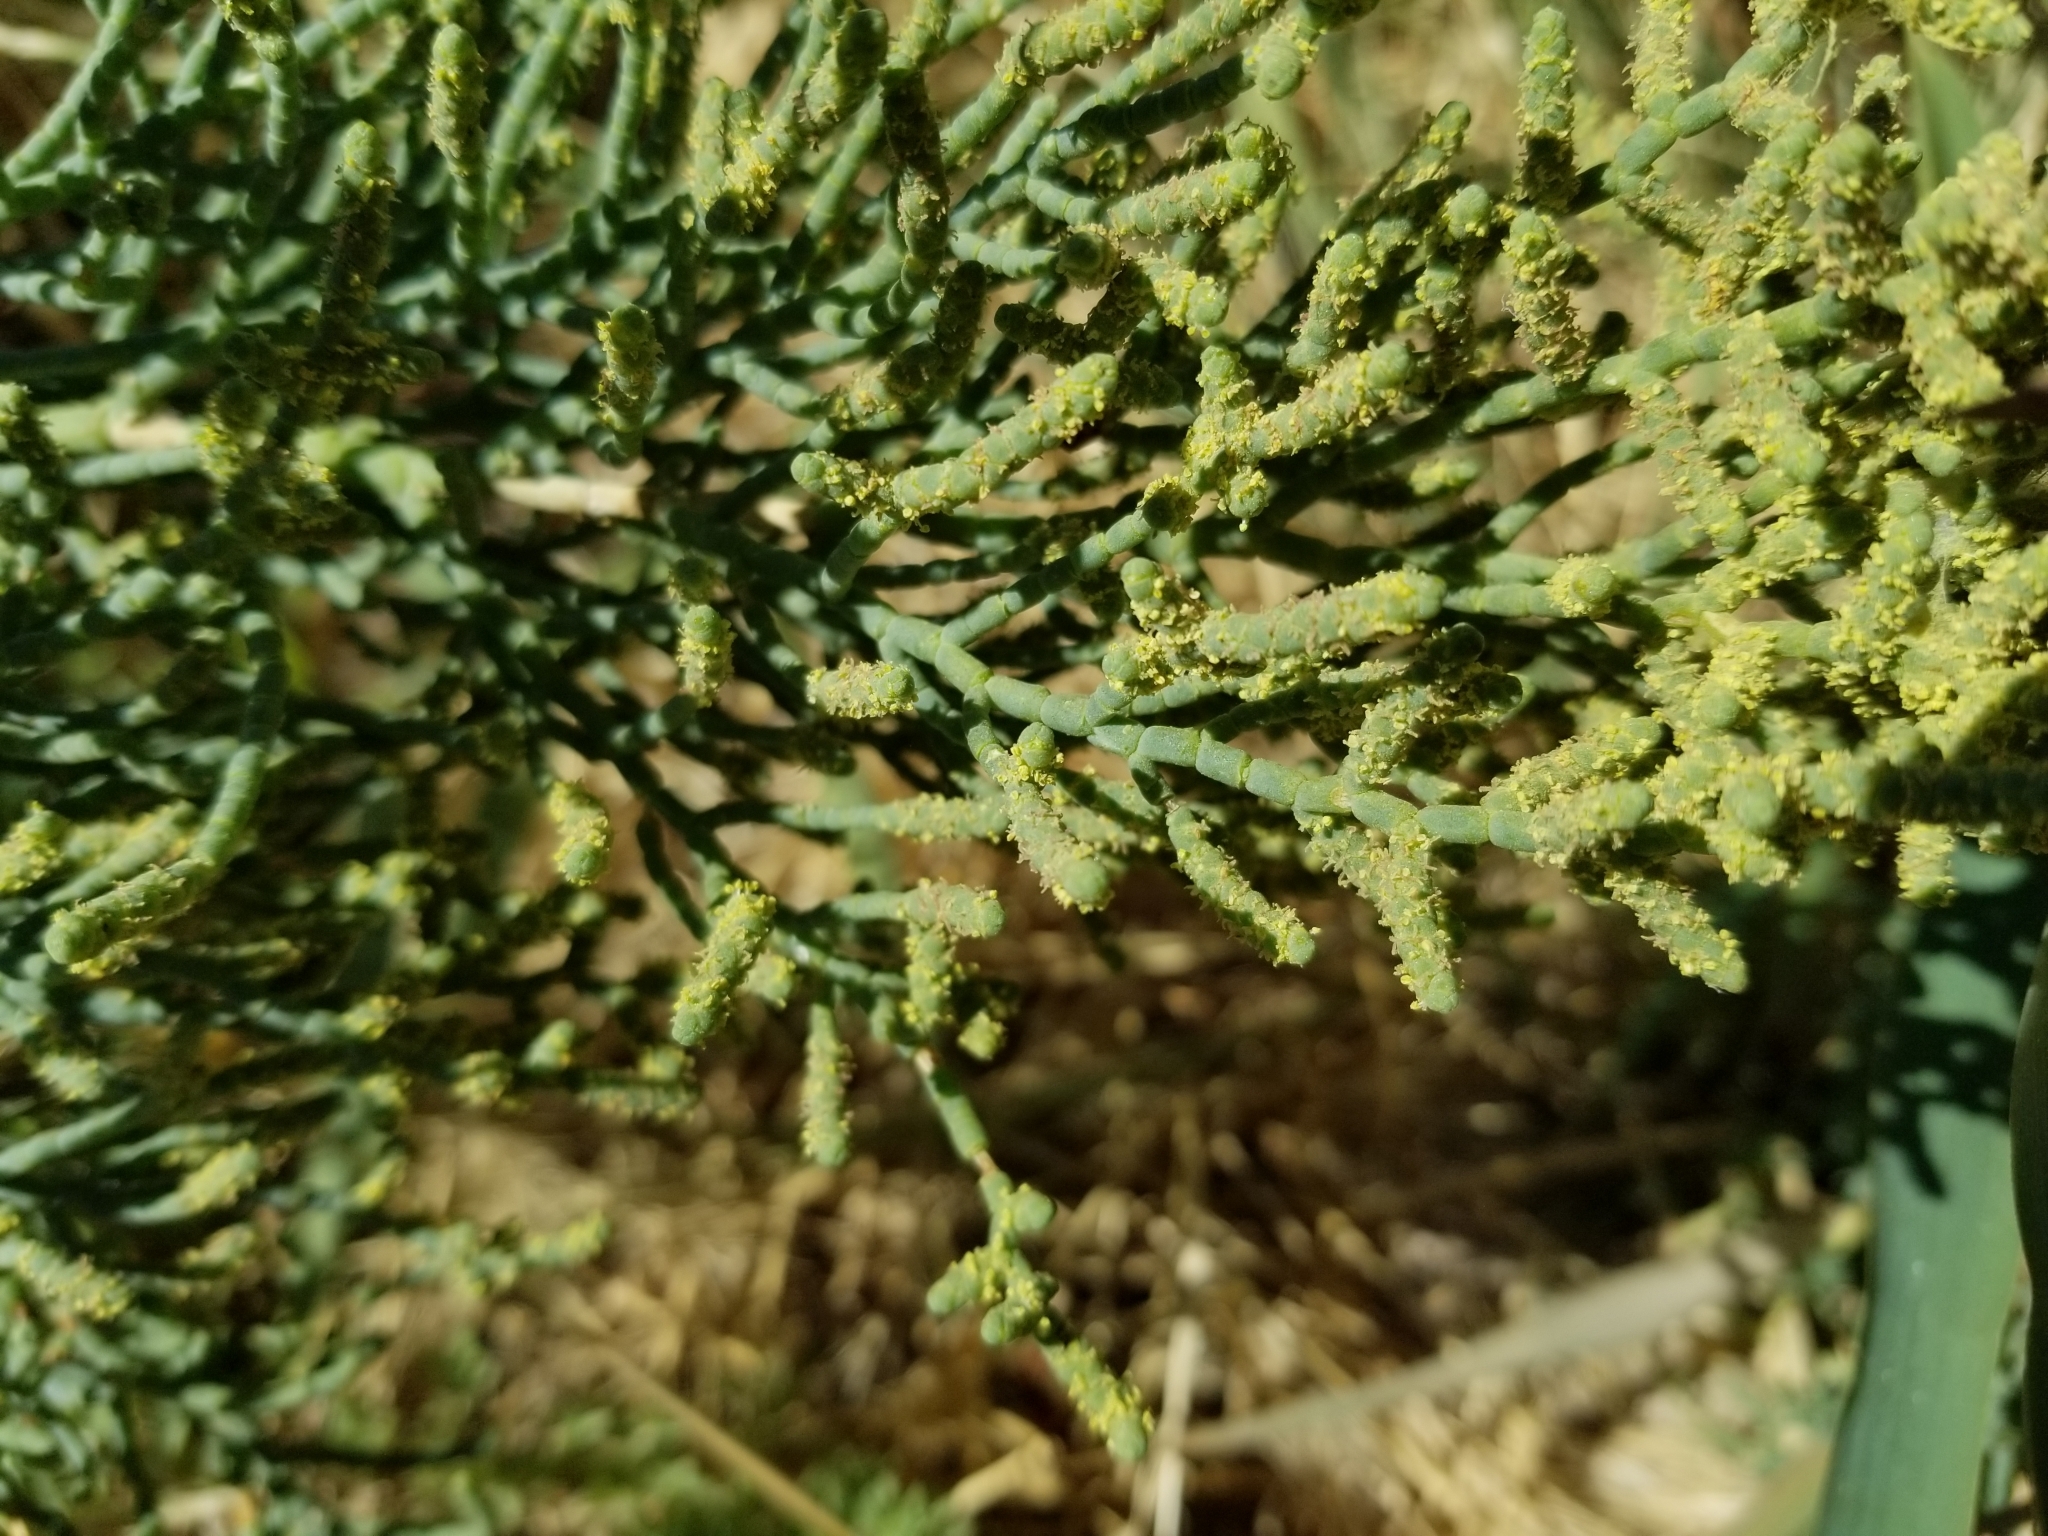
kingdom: Plantae
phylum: Tracheophyta
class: Magnoliopsida
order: Caryophyllales
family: Amaranthaceae
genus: Allenrolfea
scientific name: Allenrolfea occidentalis
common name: Iodine-bush
